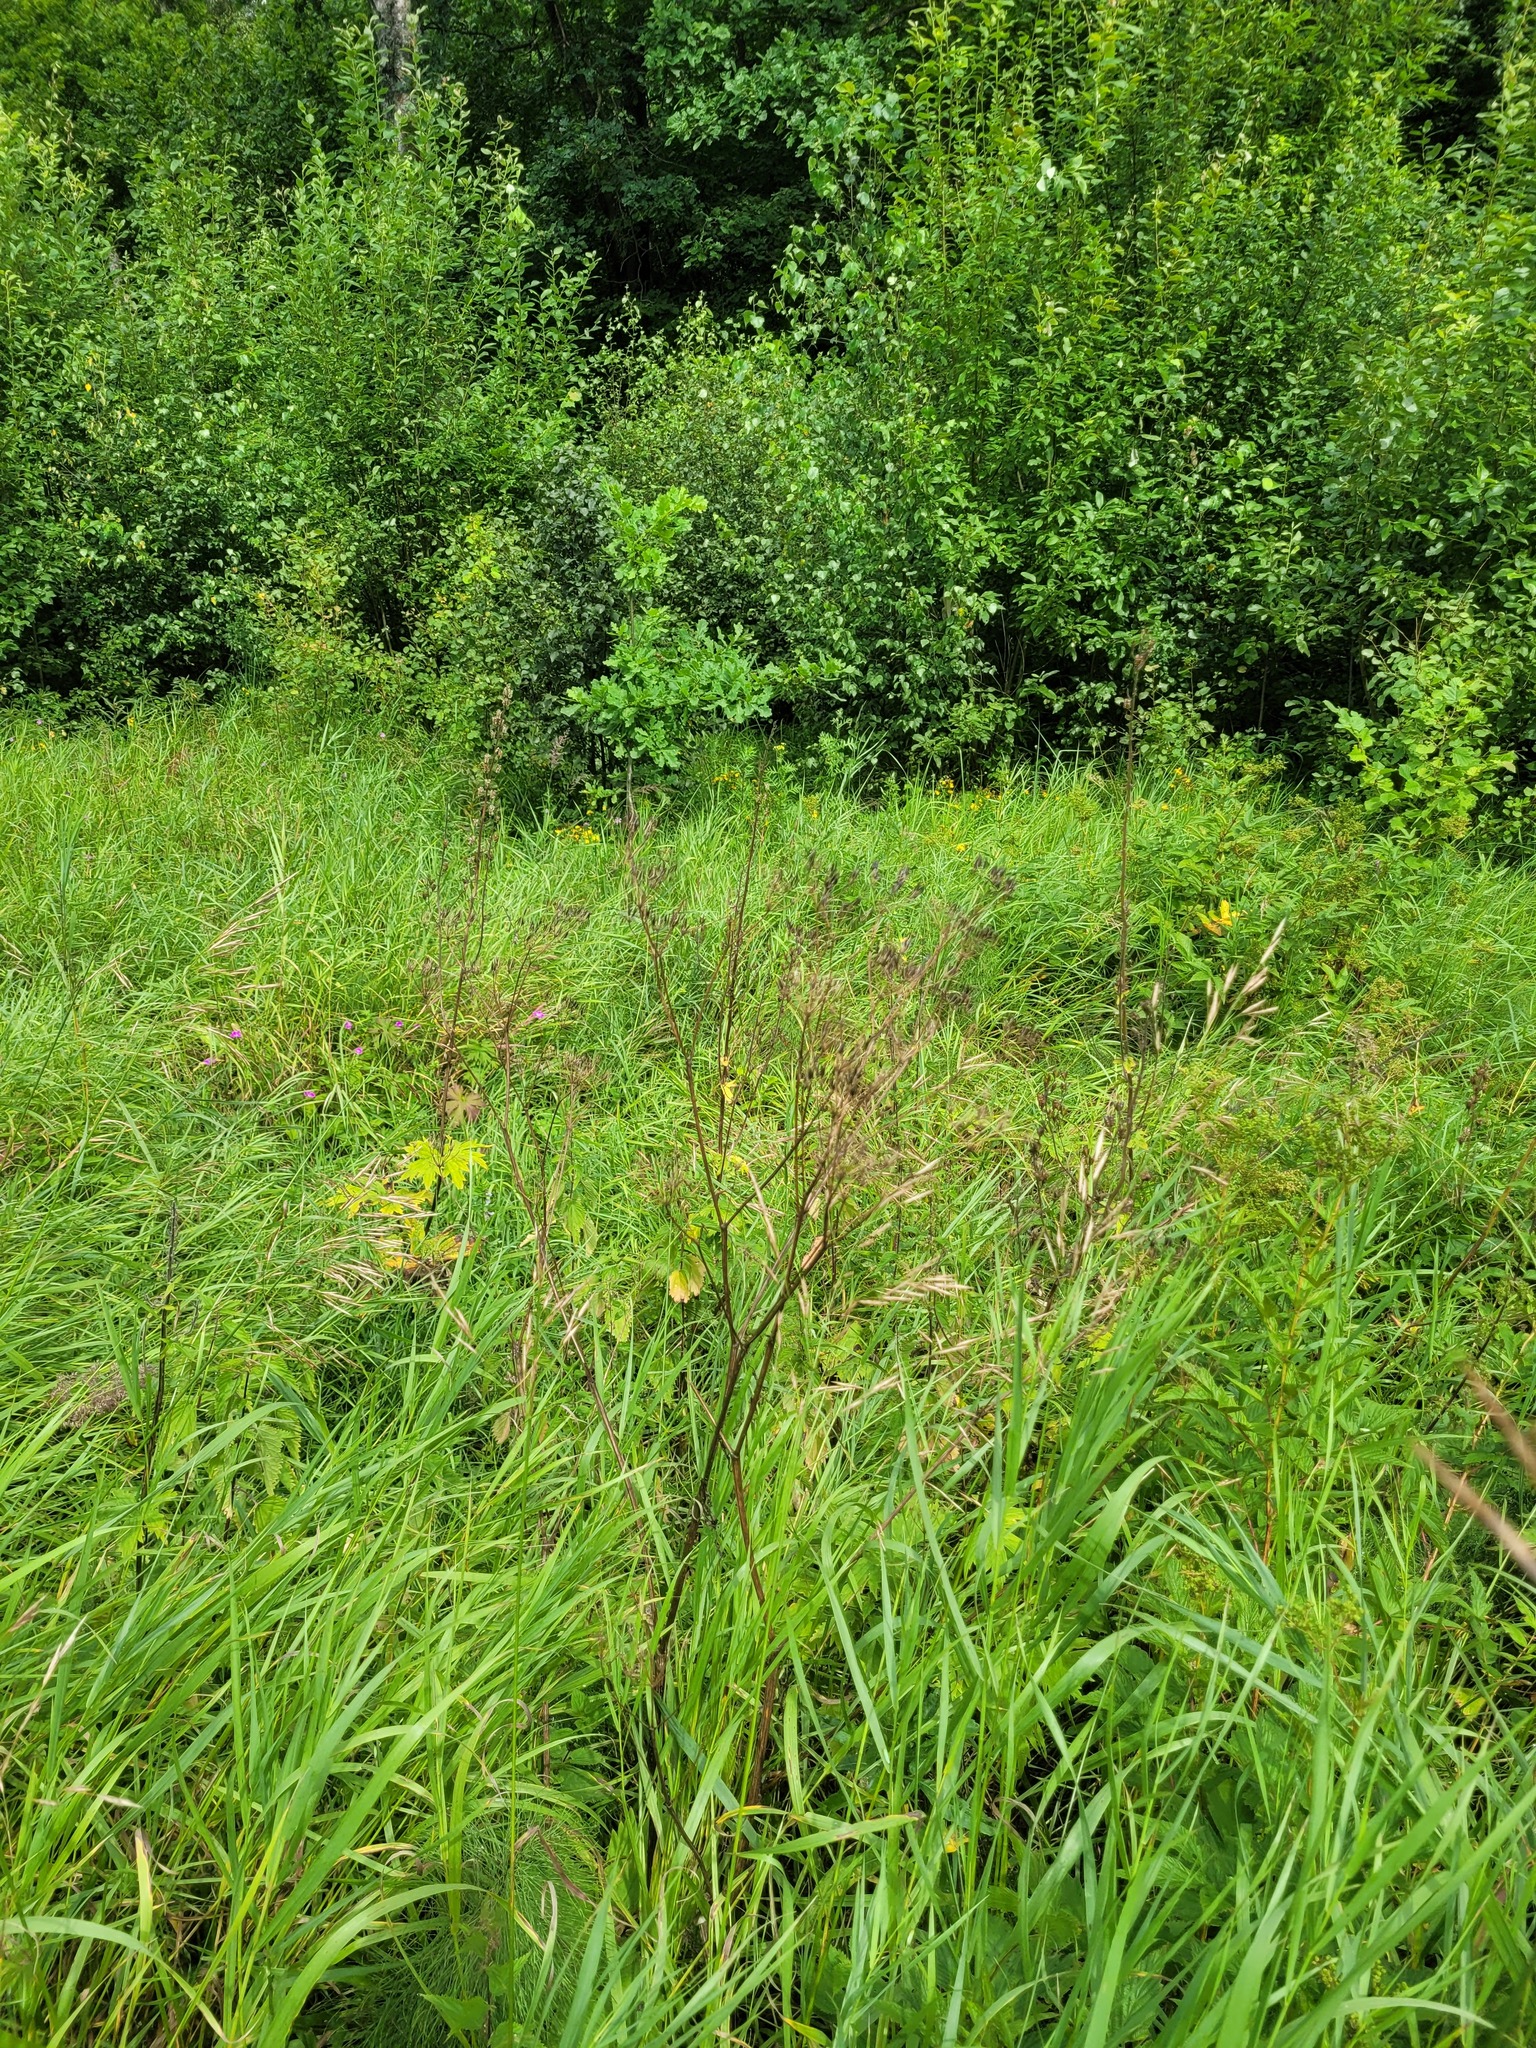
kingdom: Plantae
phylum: Tracheophyta
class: Magnoliopsida
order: Apiales
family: Apiaceae
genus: Anthriscus
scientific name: Anthriscus sylvestris
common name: Cow parsley
